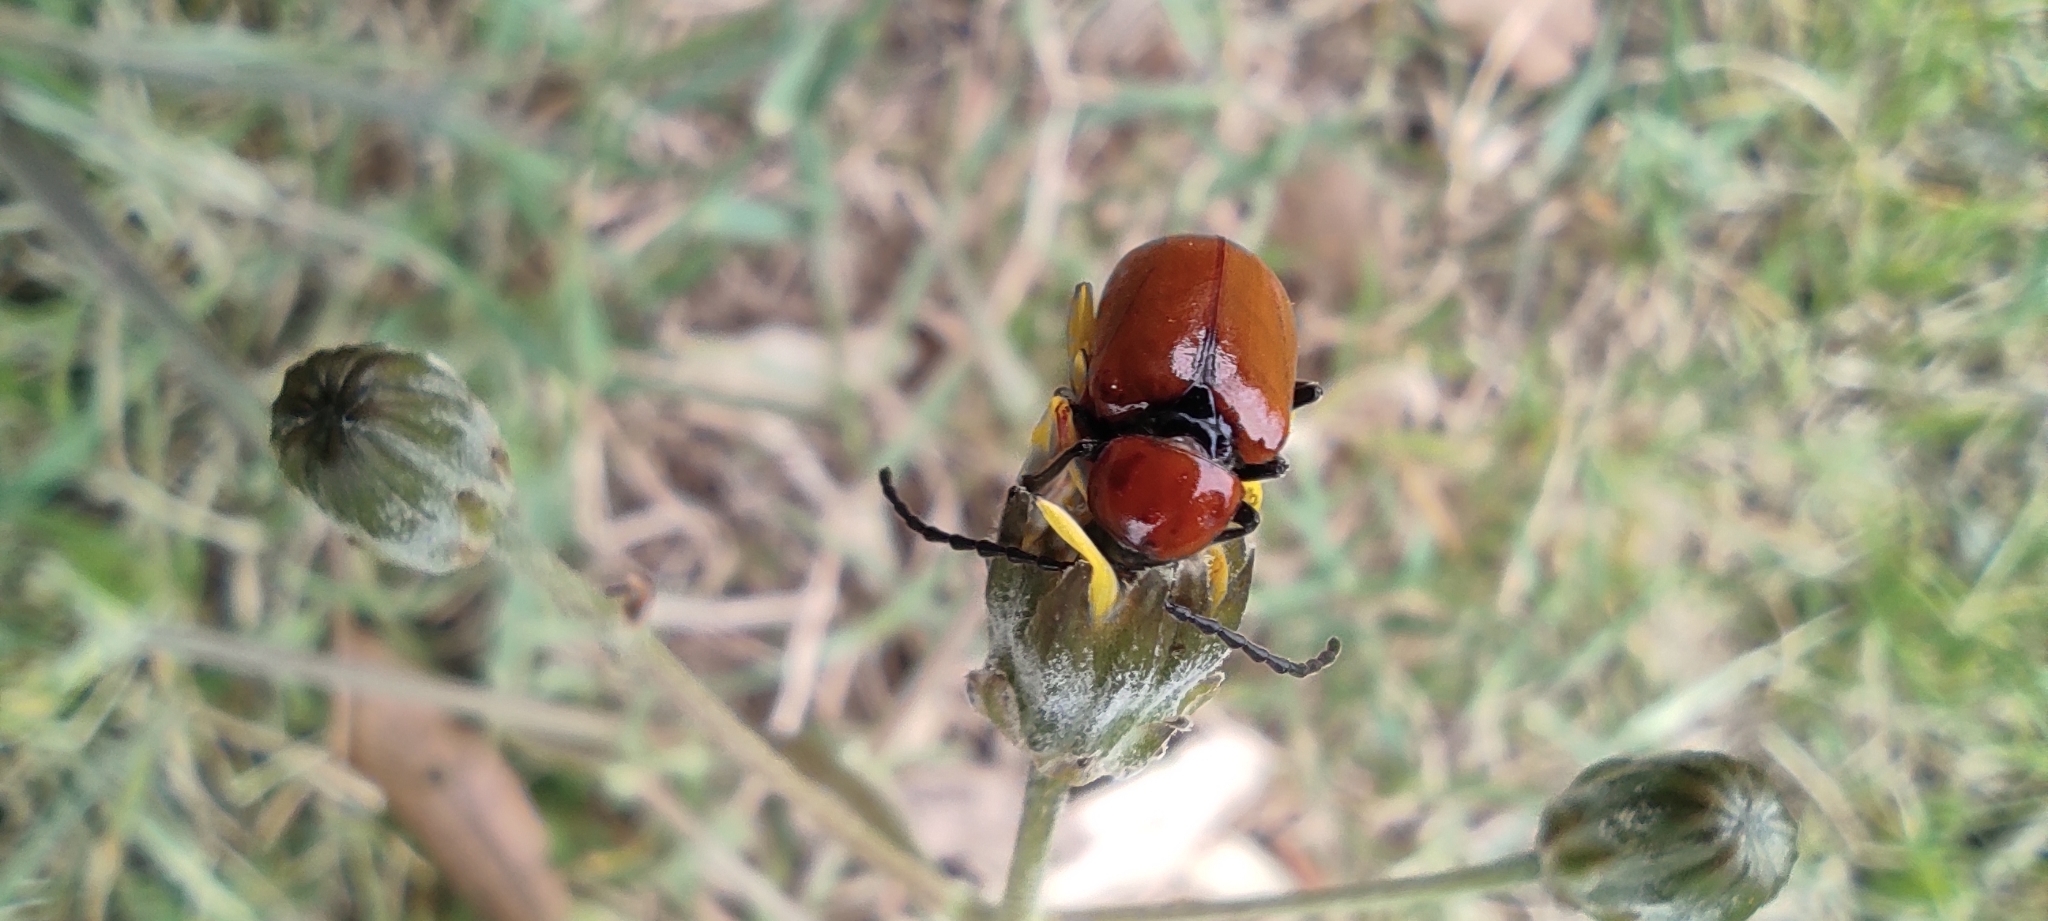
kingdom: Animalia
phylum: Arthropoda
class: Insecta
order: Coleoptera
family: Chrysomelidae
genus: Exosoma
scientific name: Exosoma lusitanicum
